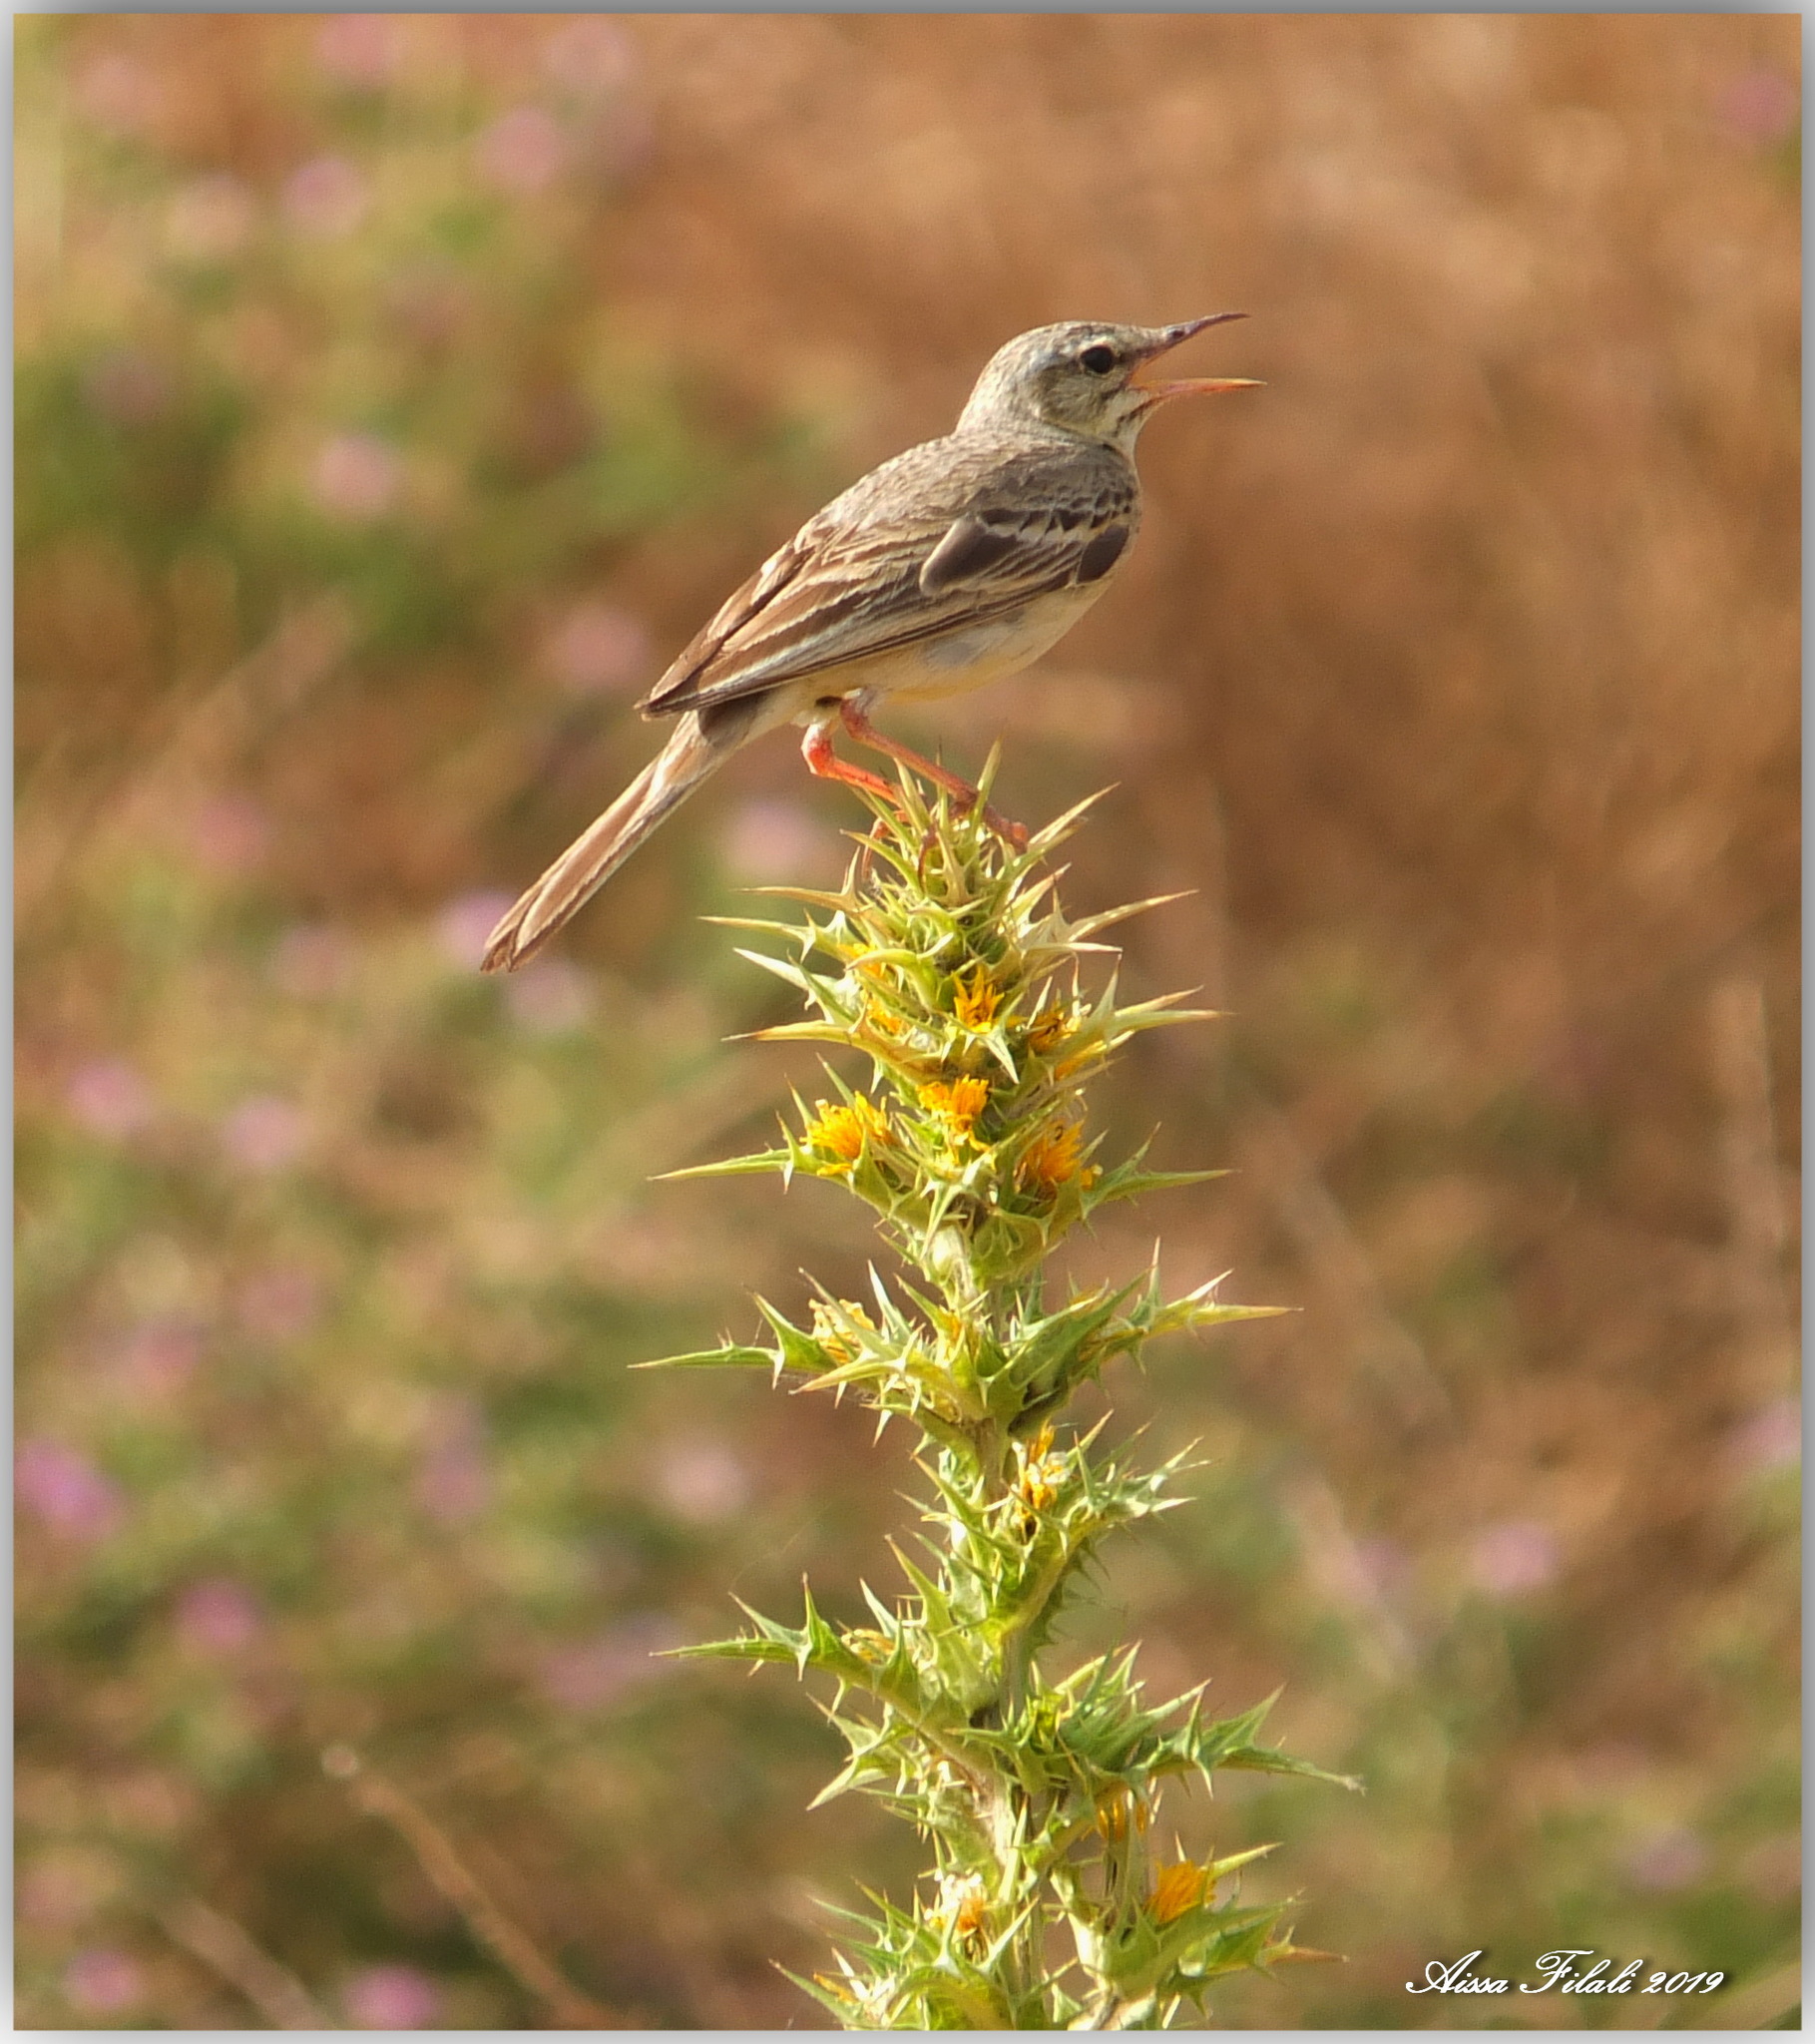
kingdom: Animalia
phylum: Chordata
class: Aves
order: Passeriformes
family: Motacillidae
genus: Anthus
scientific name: Anthus campestris
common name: Tawny pipit
